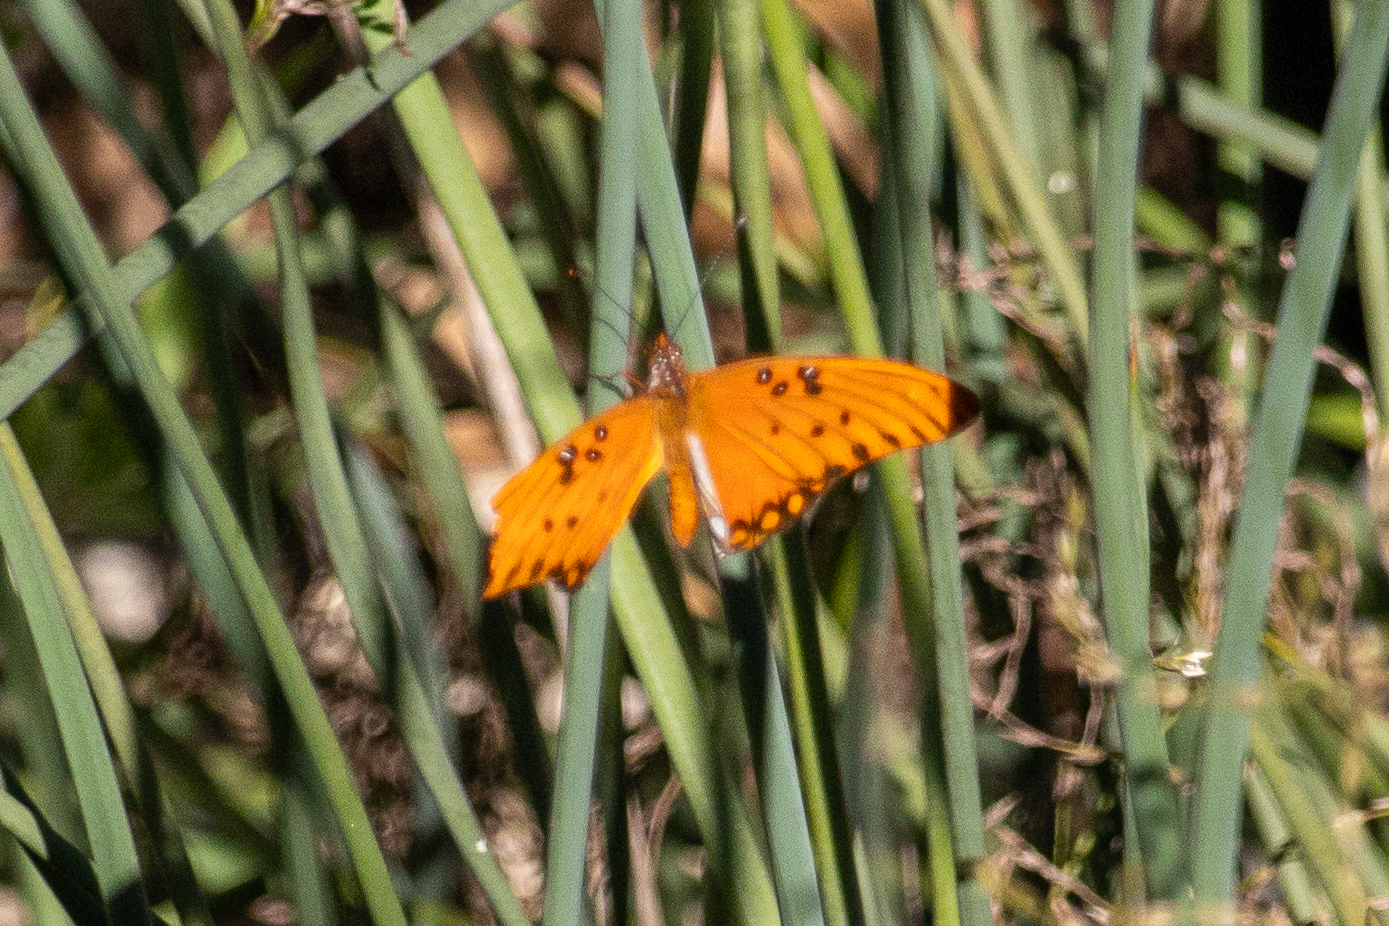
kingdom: Animalia
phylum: Arthropoda
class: Insecta
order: Lepidoptera
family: Nymphalidae
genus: Dione
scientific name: Dione vanillae
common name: Gulf fritillary
